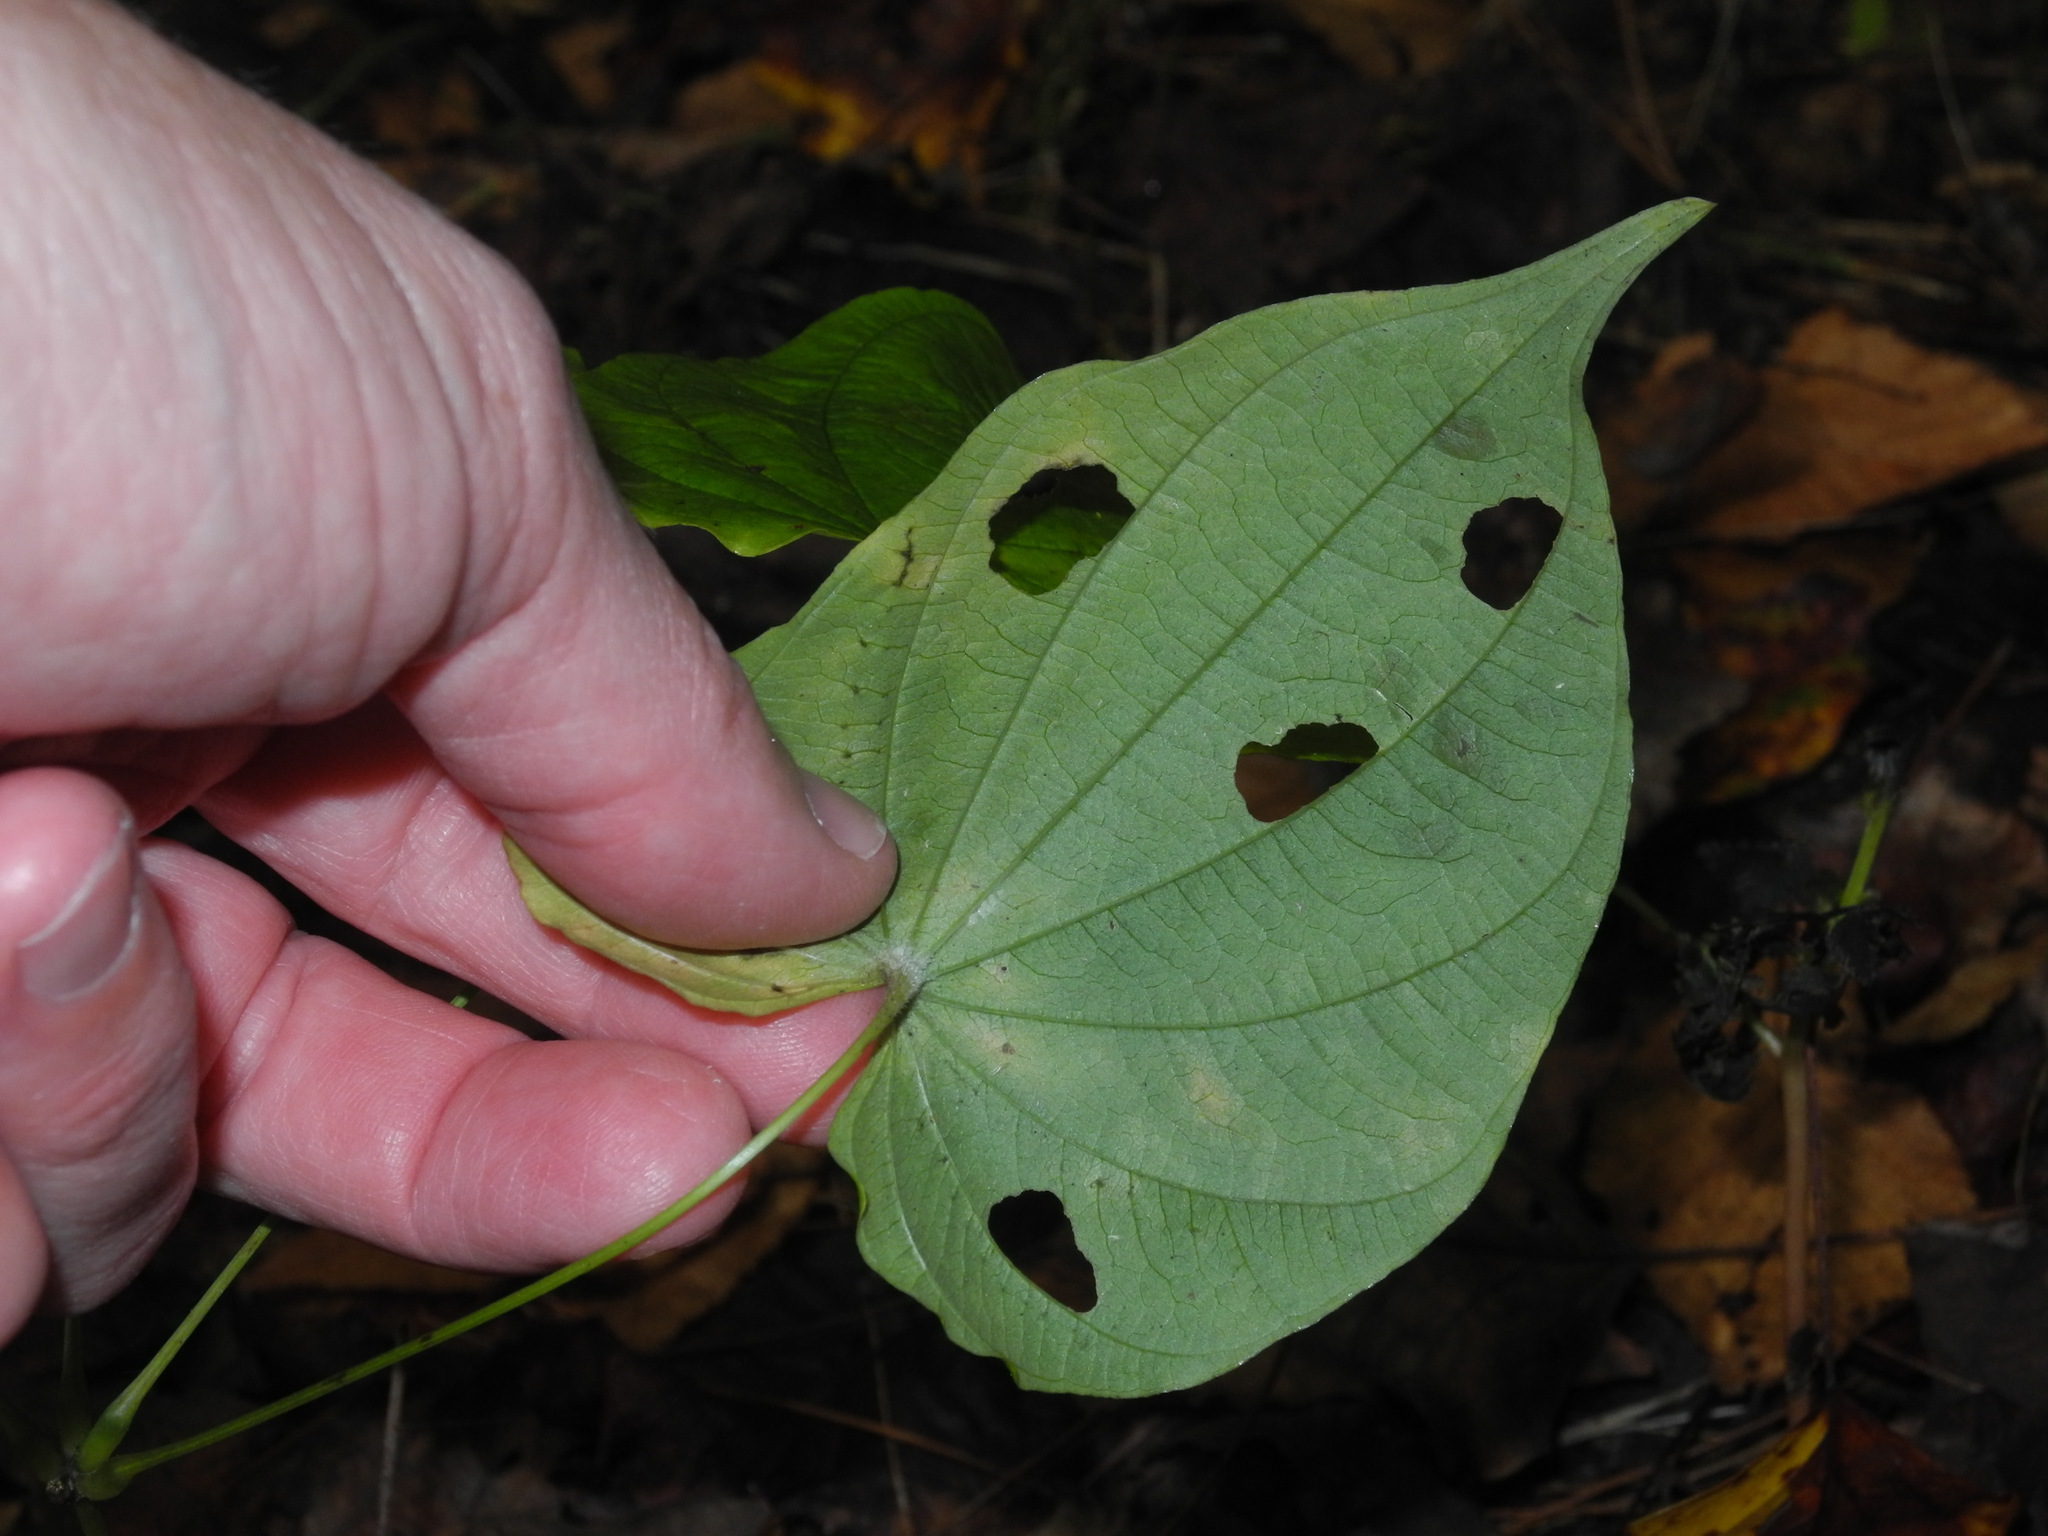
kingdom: Plantae
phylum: Tracheophyta
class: Liliopsida
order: Dioscoreales
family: Dioscoreaceae
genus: Dioscorea
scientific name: Dioscorea villosa
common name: Wild yam
